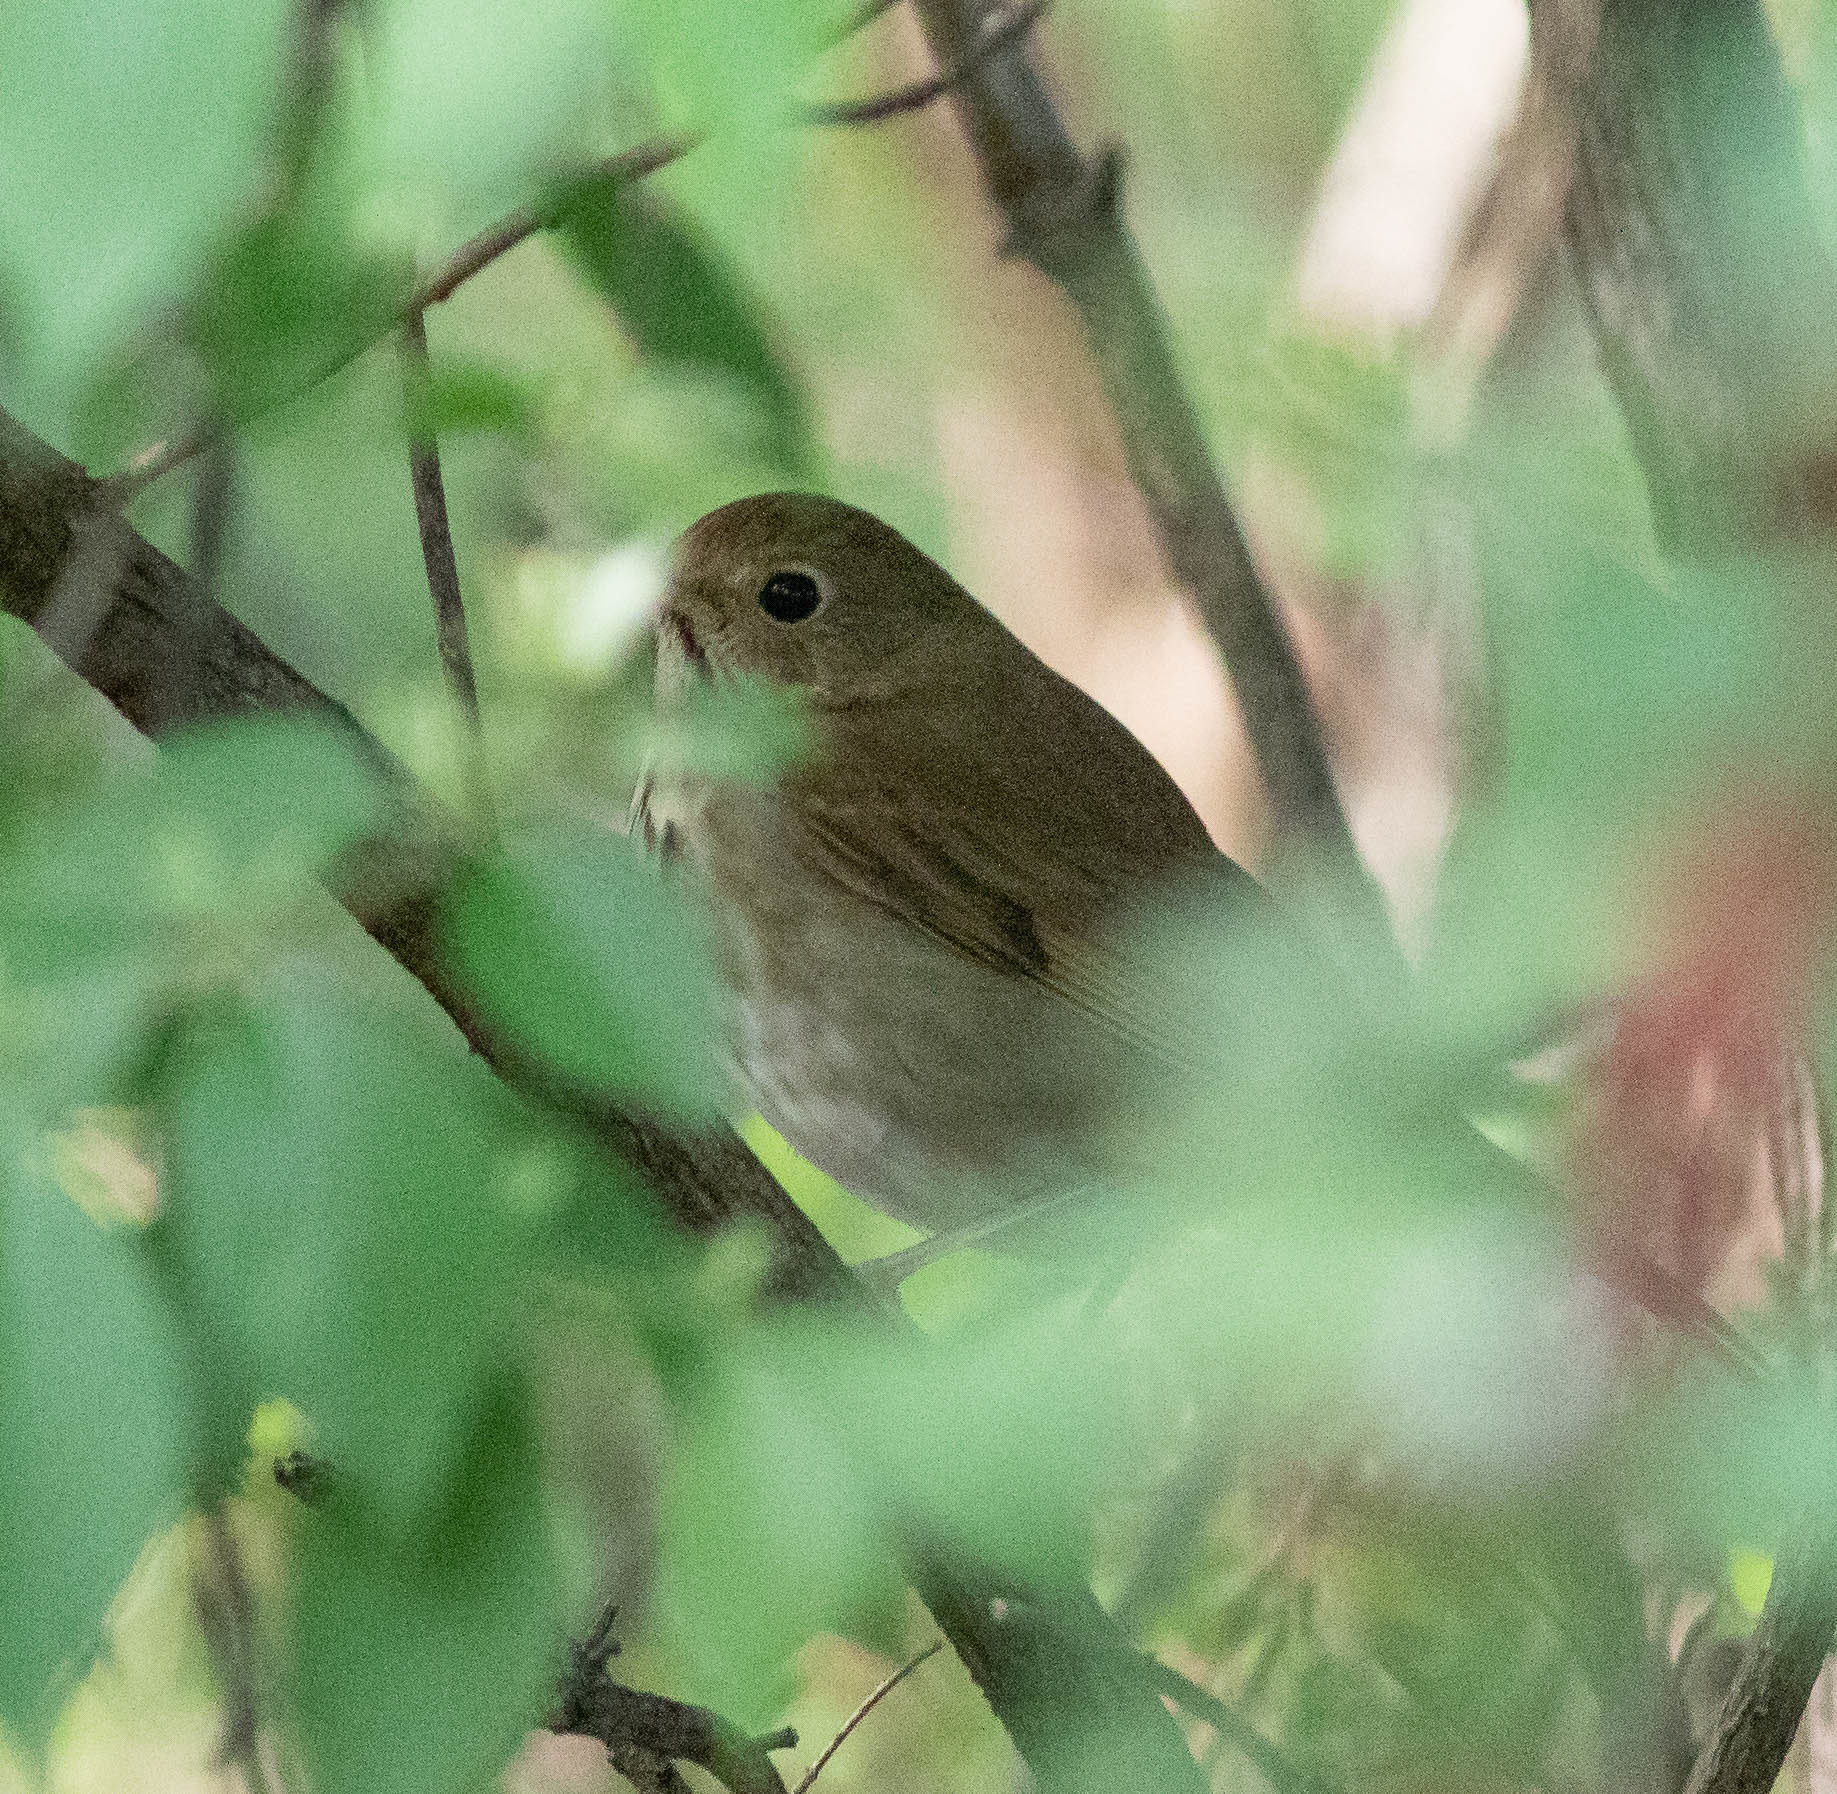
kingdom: Animalia
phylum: Chordata
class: Aves
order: Passeriformes
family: Turdidae
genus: Catharus
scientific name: Catharus guttatus
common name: Hermit thrush
